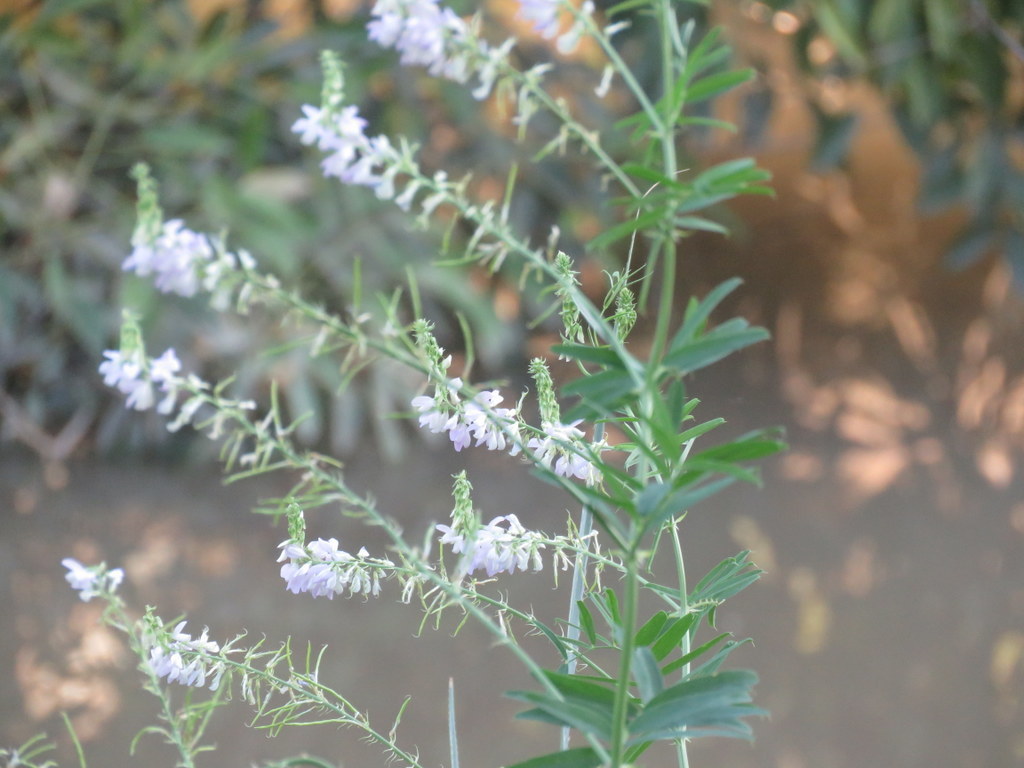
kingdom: Plantae
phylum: Tracheophyta
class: Magnoliopsida
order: Fabales
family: Fabaceae
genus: Melilotus
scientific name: Melilotus albus
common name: White melilot
